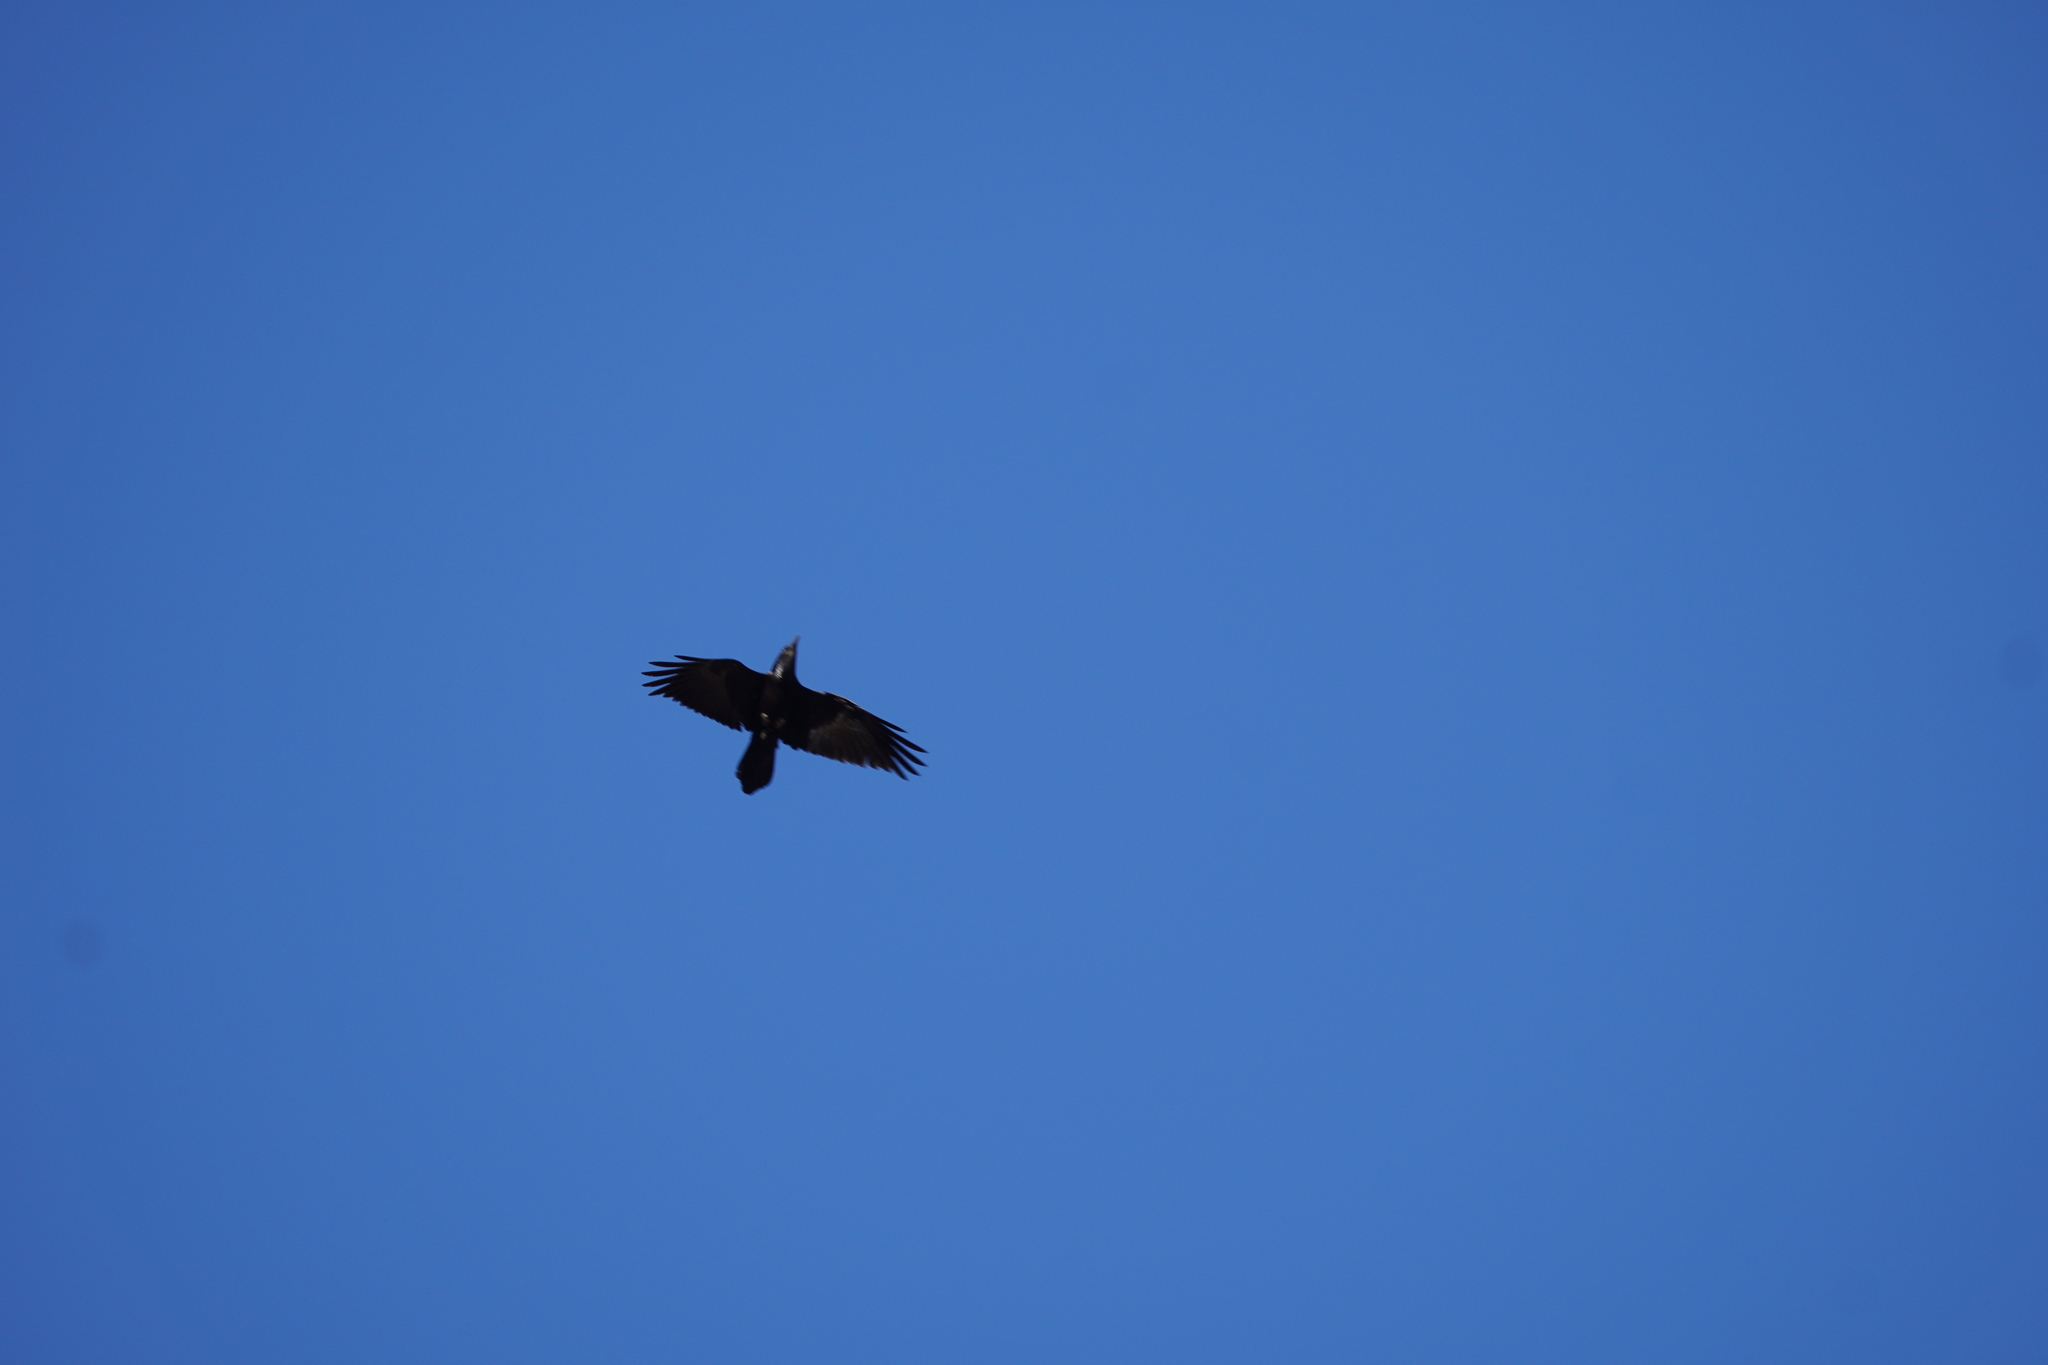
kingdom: Animalia
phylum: Chordata
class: Aves
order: Passeriformes
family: Corvidae
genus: Corvus
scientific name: Corvus corax
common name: Common raven
